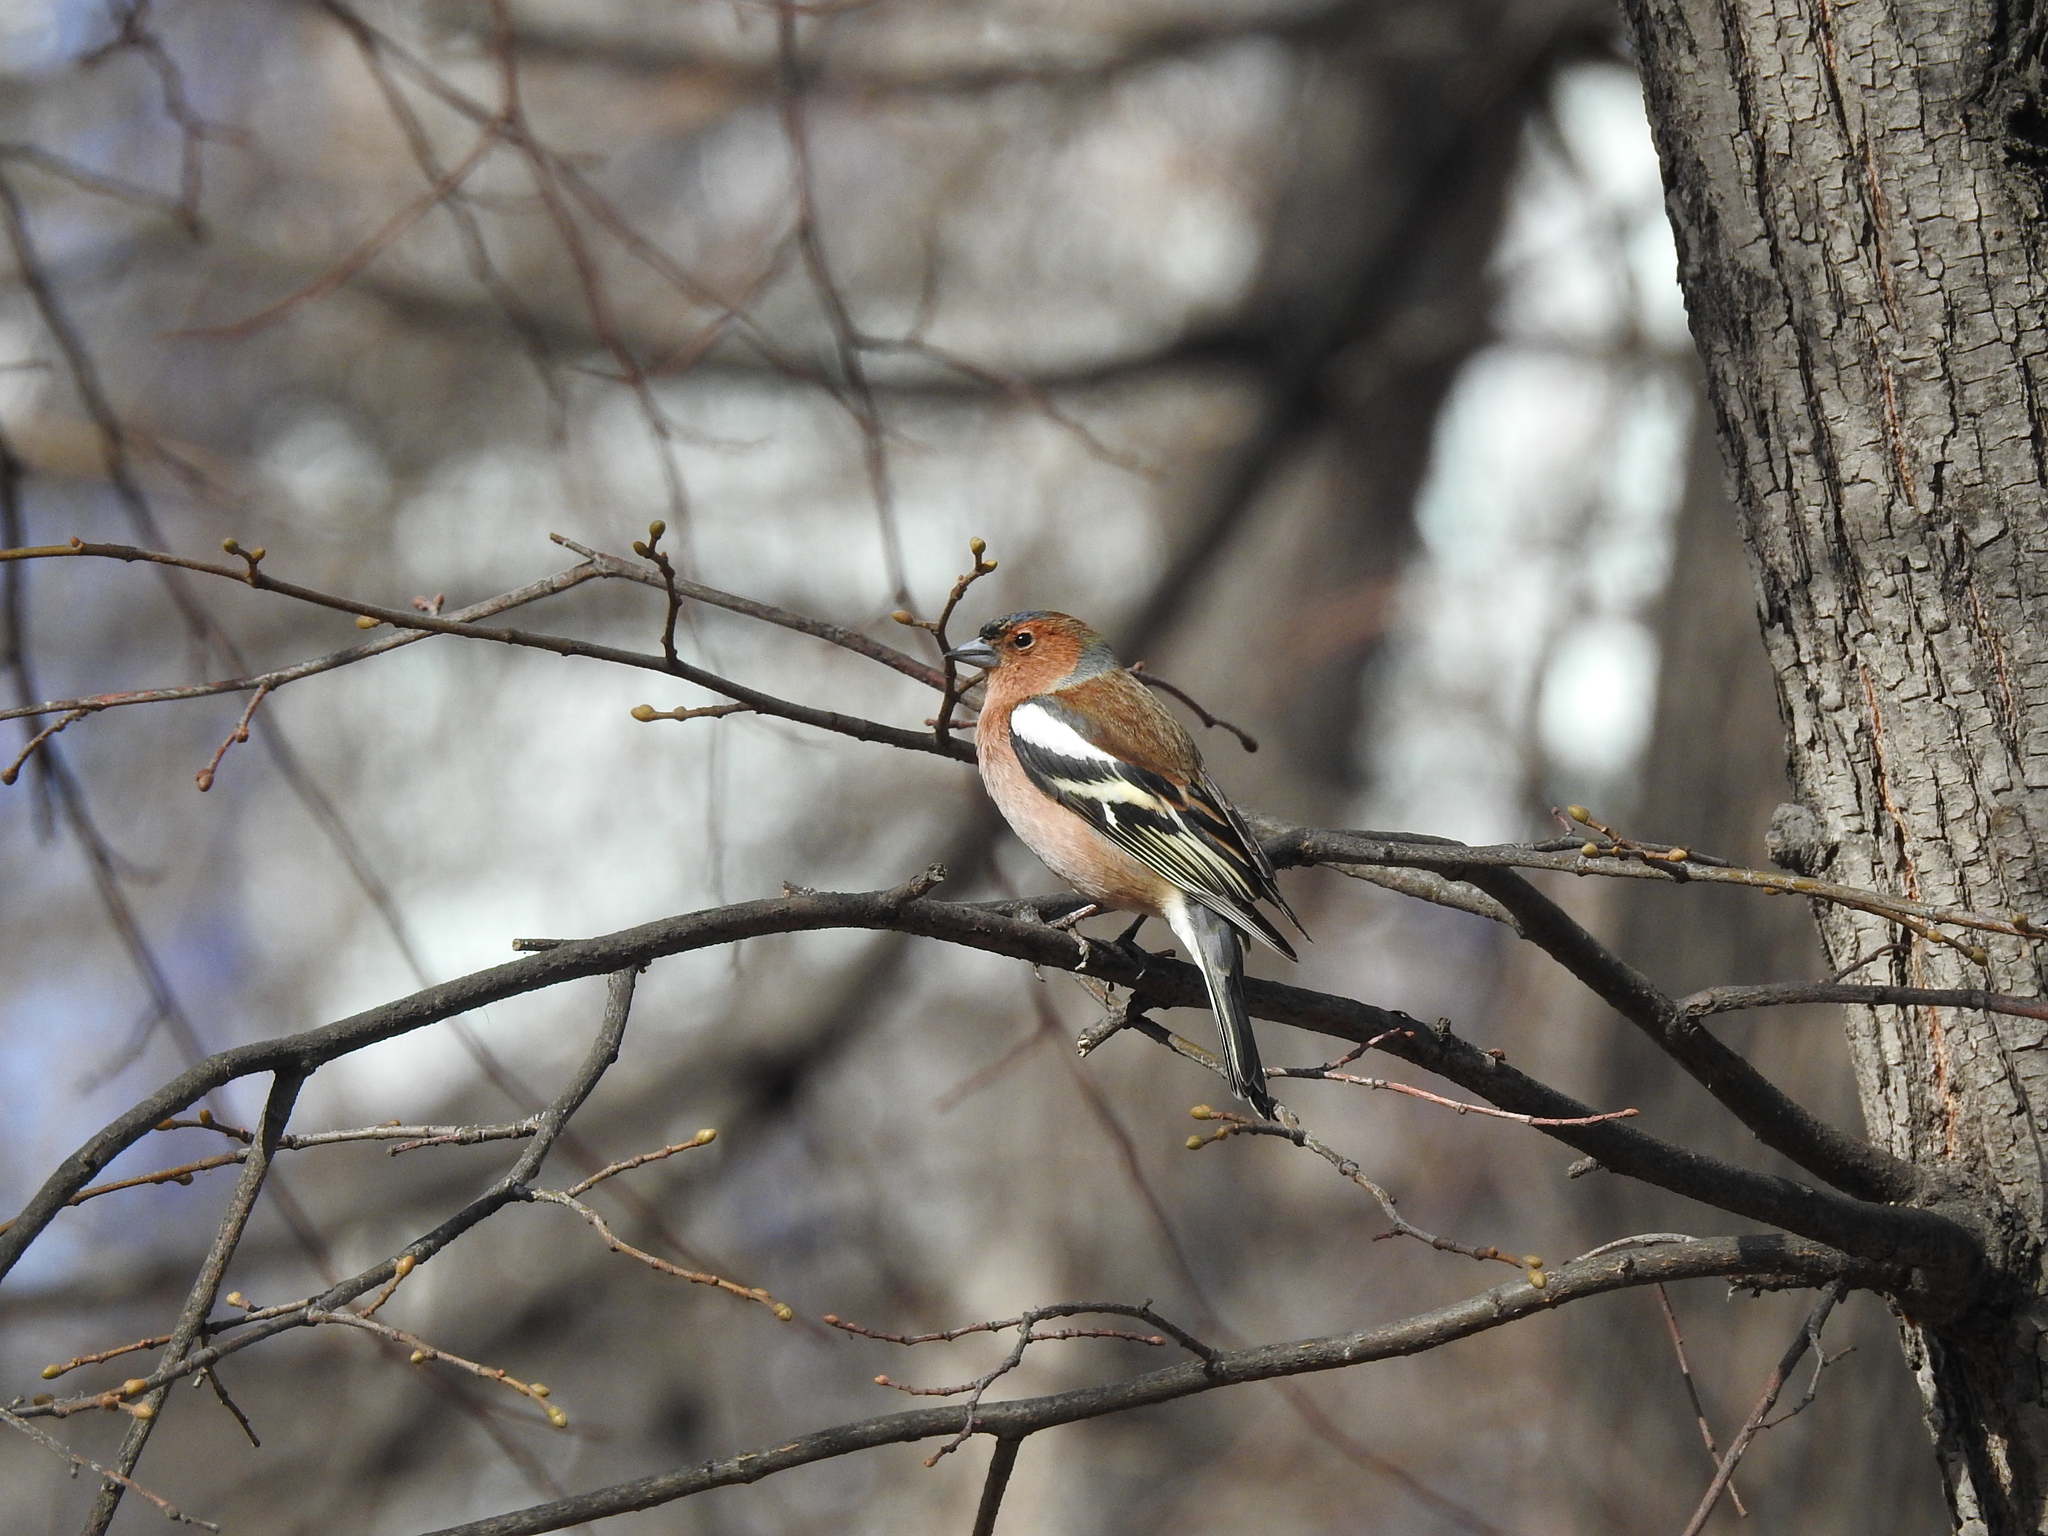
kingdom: Animalia
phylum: Chordata
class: Aves
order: Passeriformes
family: Fringillidae
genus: Fringilla
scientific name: Fringilla coelebs
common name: Common chaffinch
